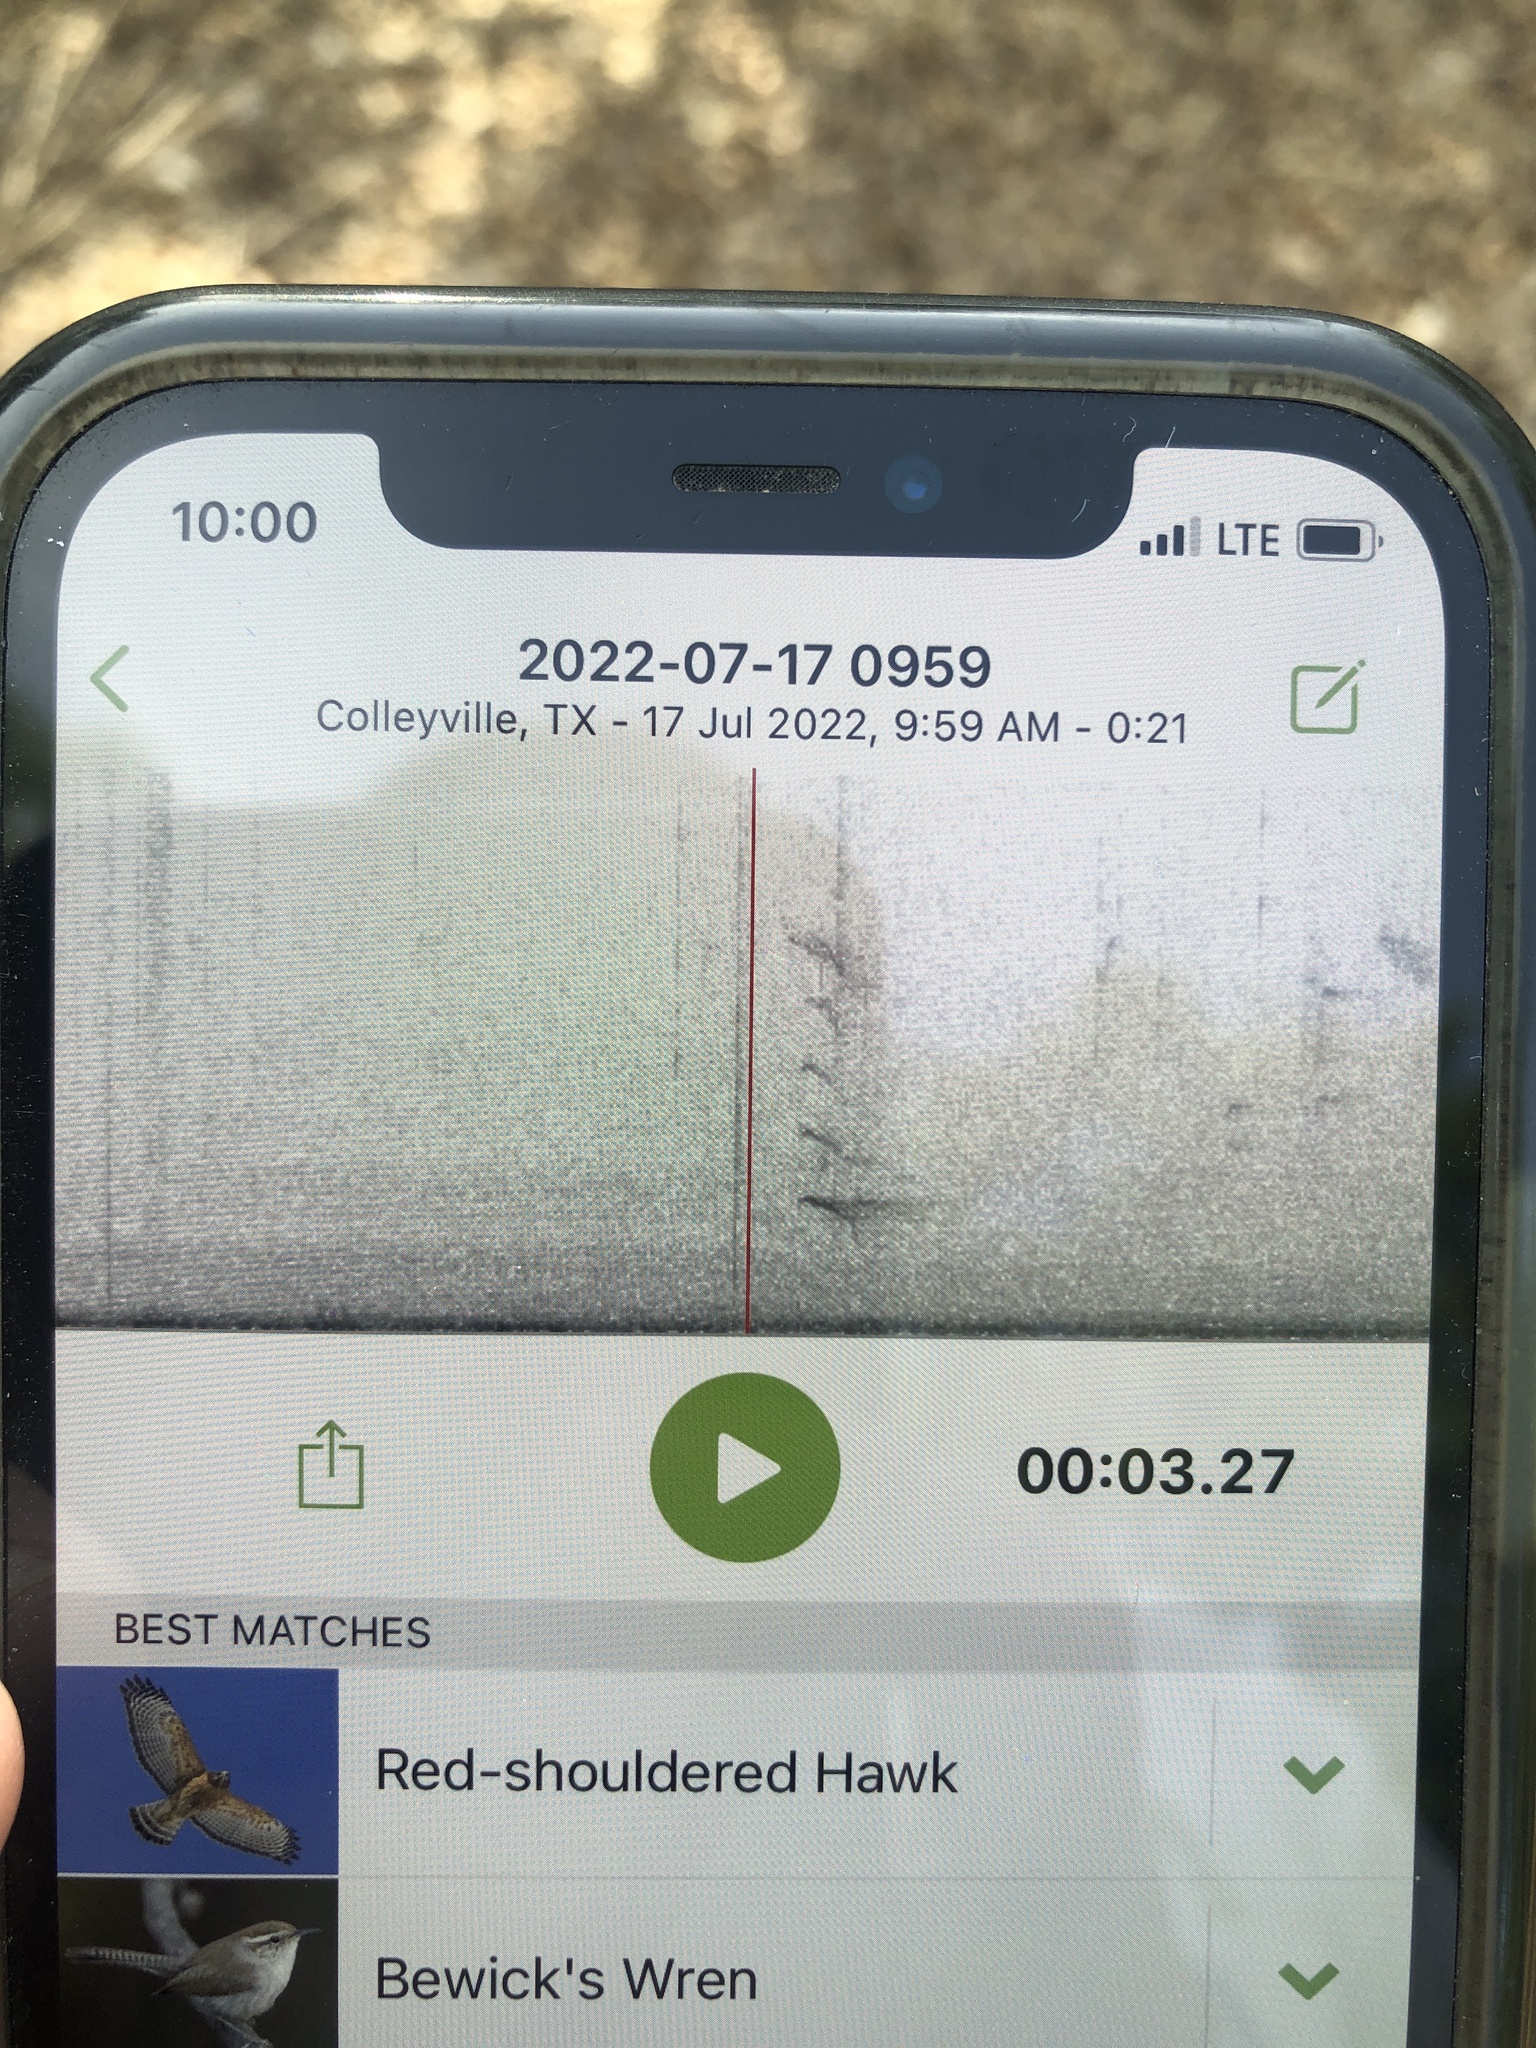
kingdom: Animalia
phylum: Chordata
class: Aves
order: Passeriformes
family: Corvidae
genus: Cyanocitta
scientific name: Cyanocitta cristata
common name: Blue jay
